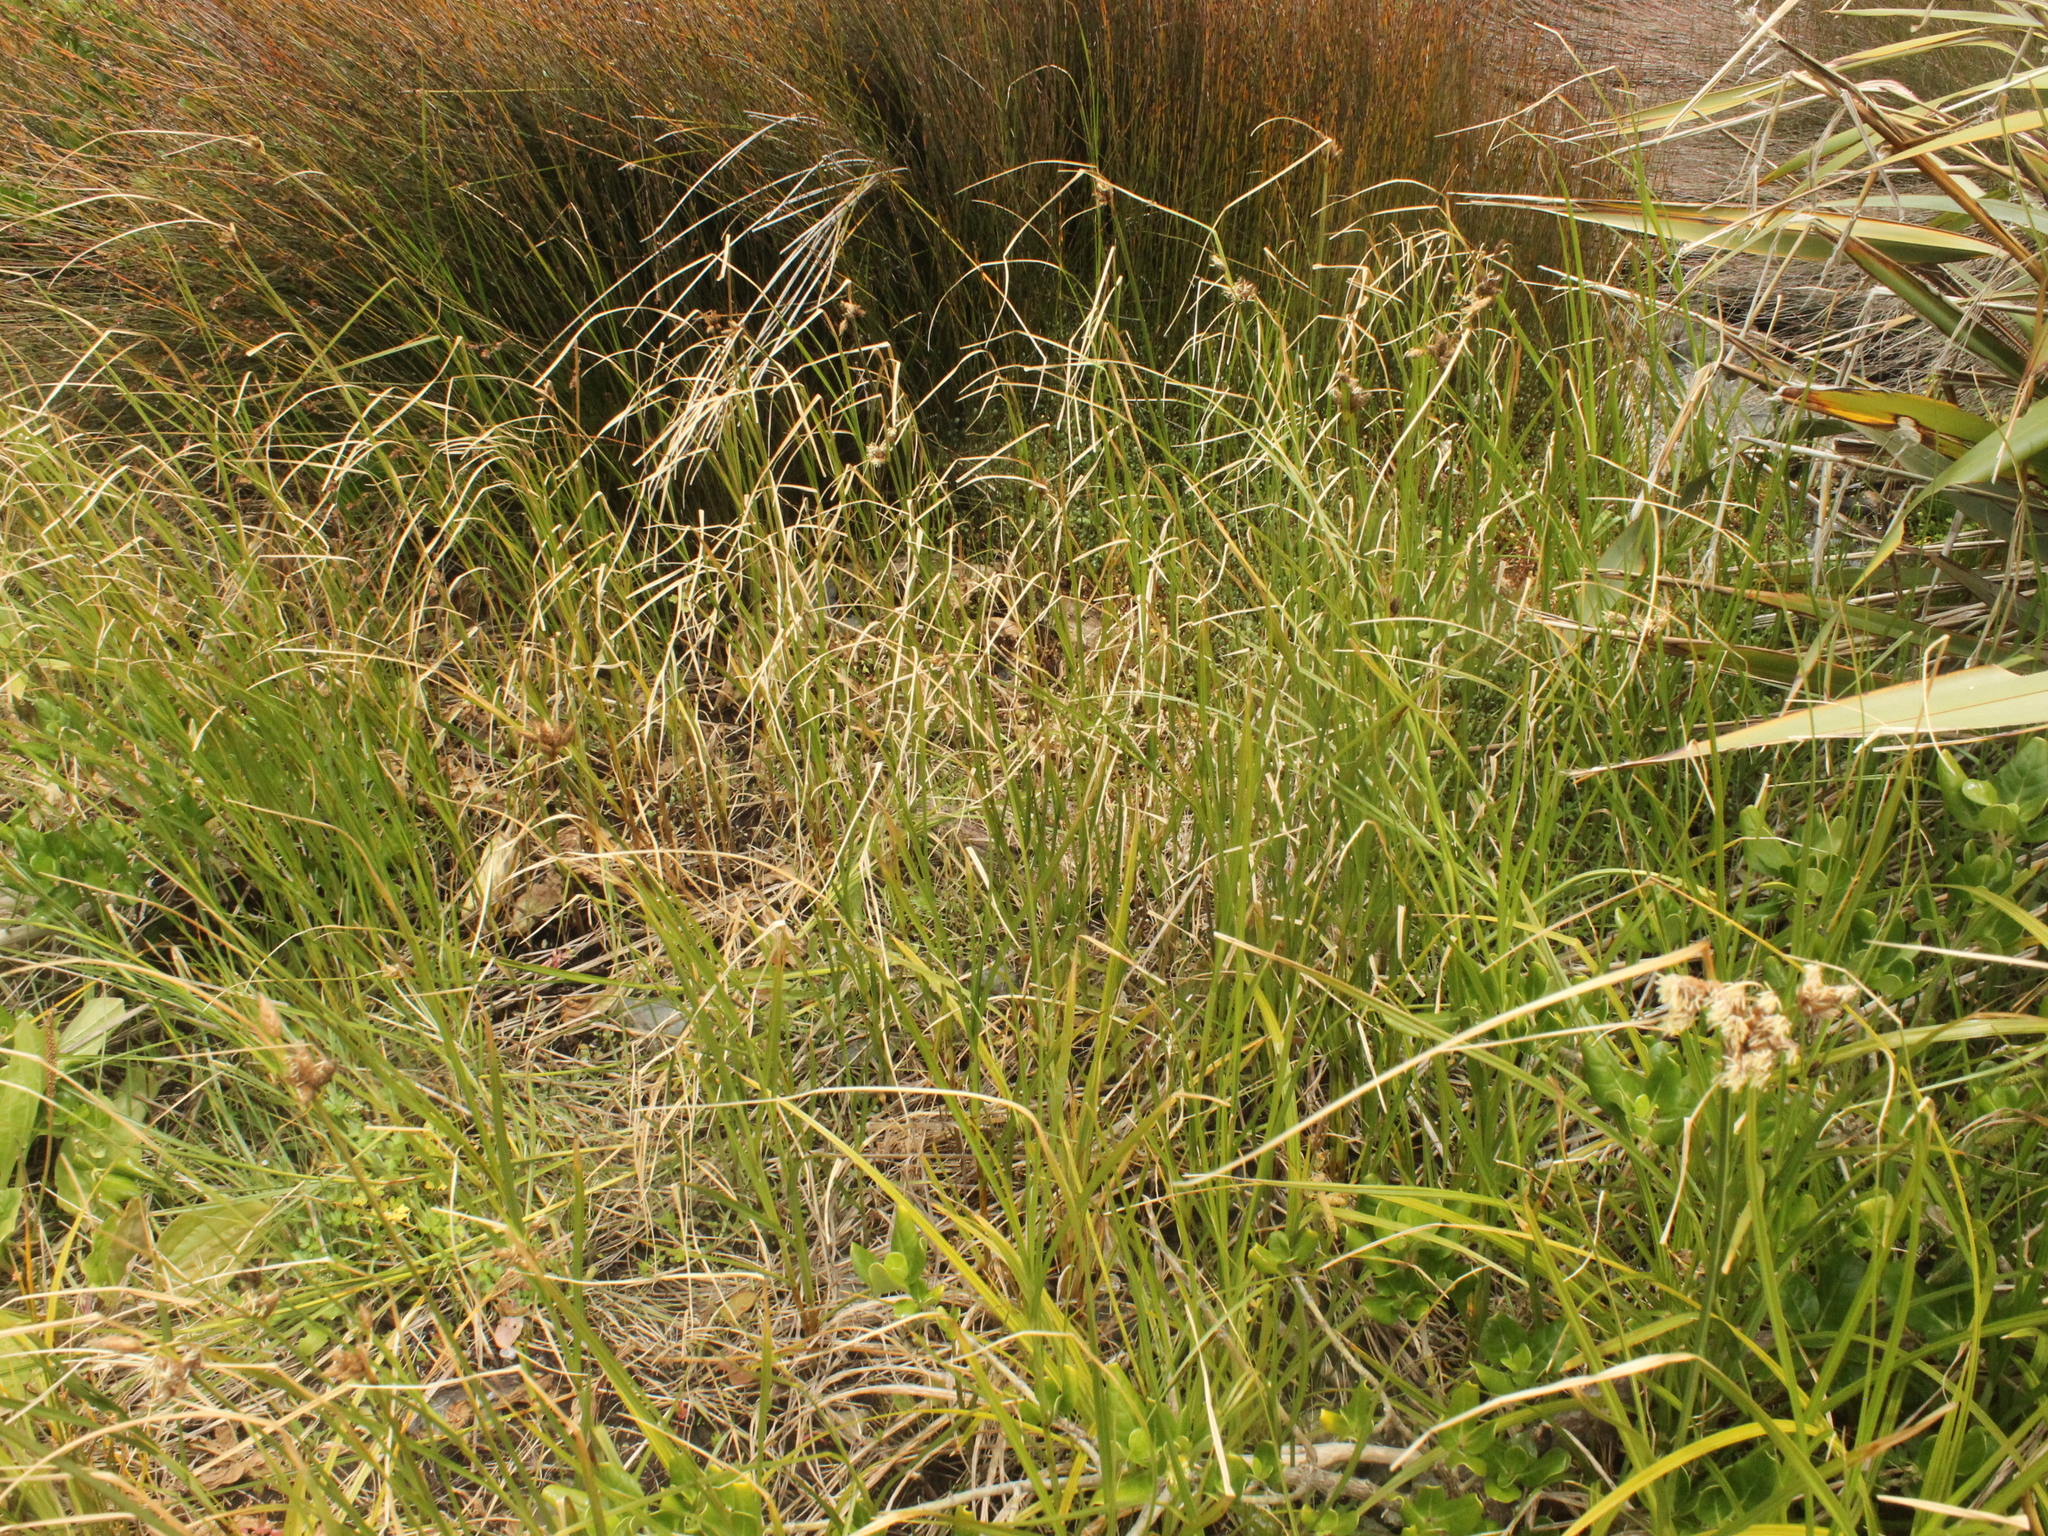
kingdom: Plantae
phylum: Tracheophyta
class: Liliopsida
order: Poales
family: Cyperaceae
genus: Bolboschoenus
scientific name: Bolboschoenus caldwellii
